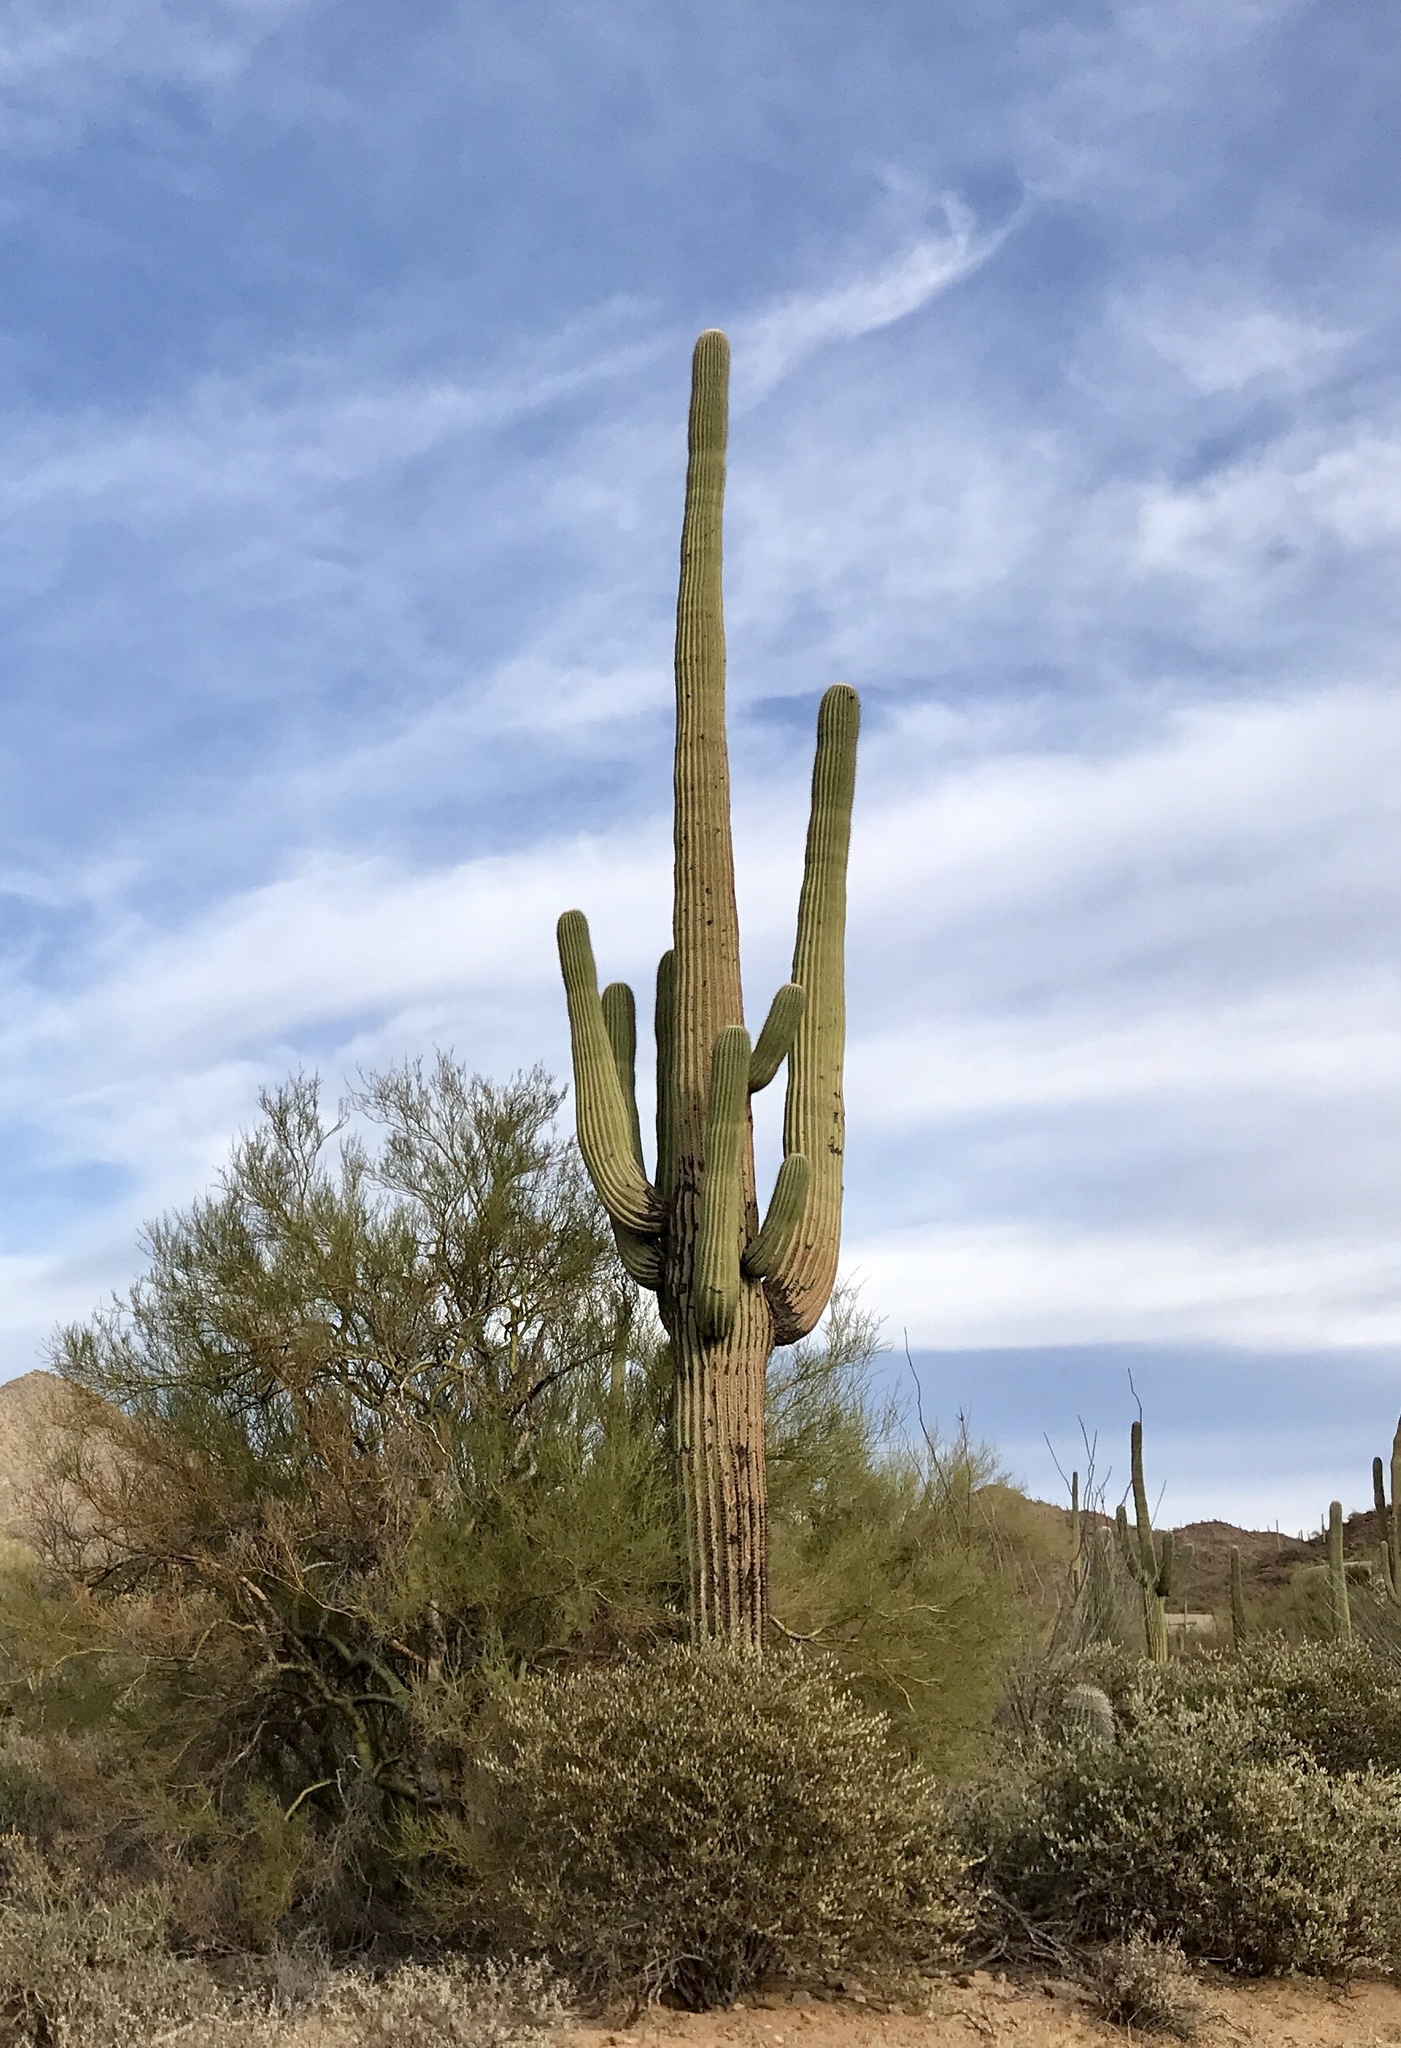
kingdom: Plantae
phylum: Tracheophyta
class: Magnoliopsida
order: Caryophyllales
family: Cactaceae
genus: Carnegiea
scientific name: Carnegiea gigantea
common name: Saguaro
